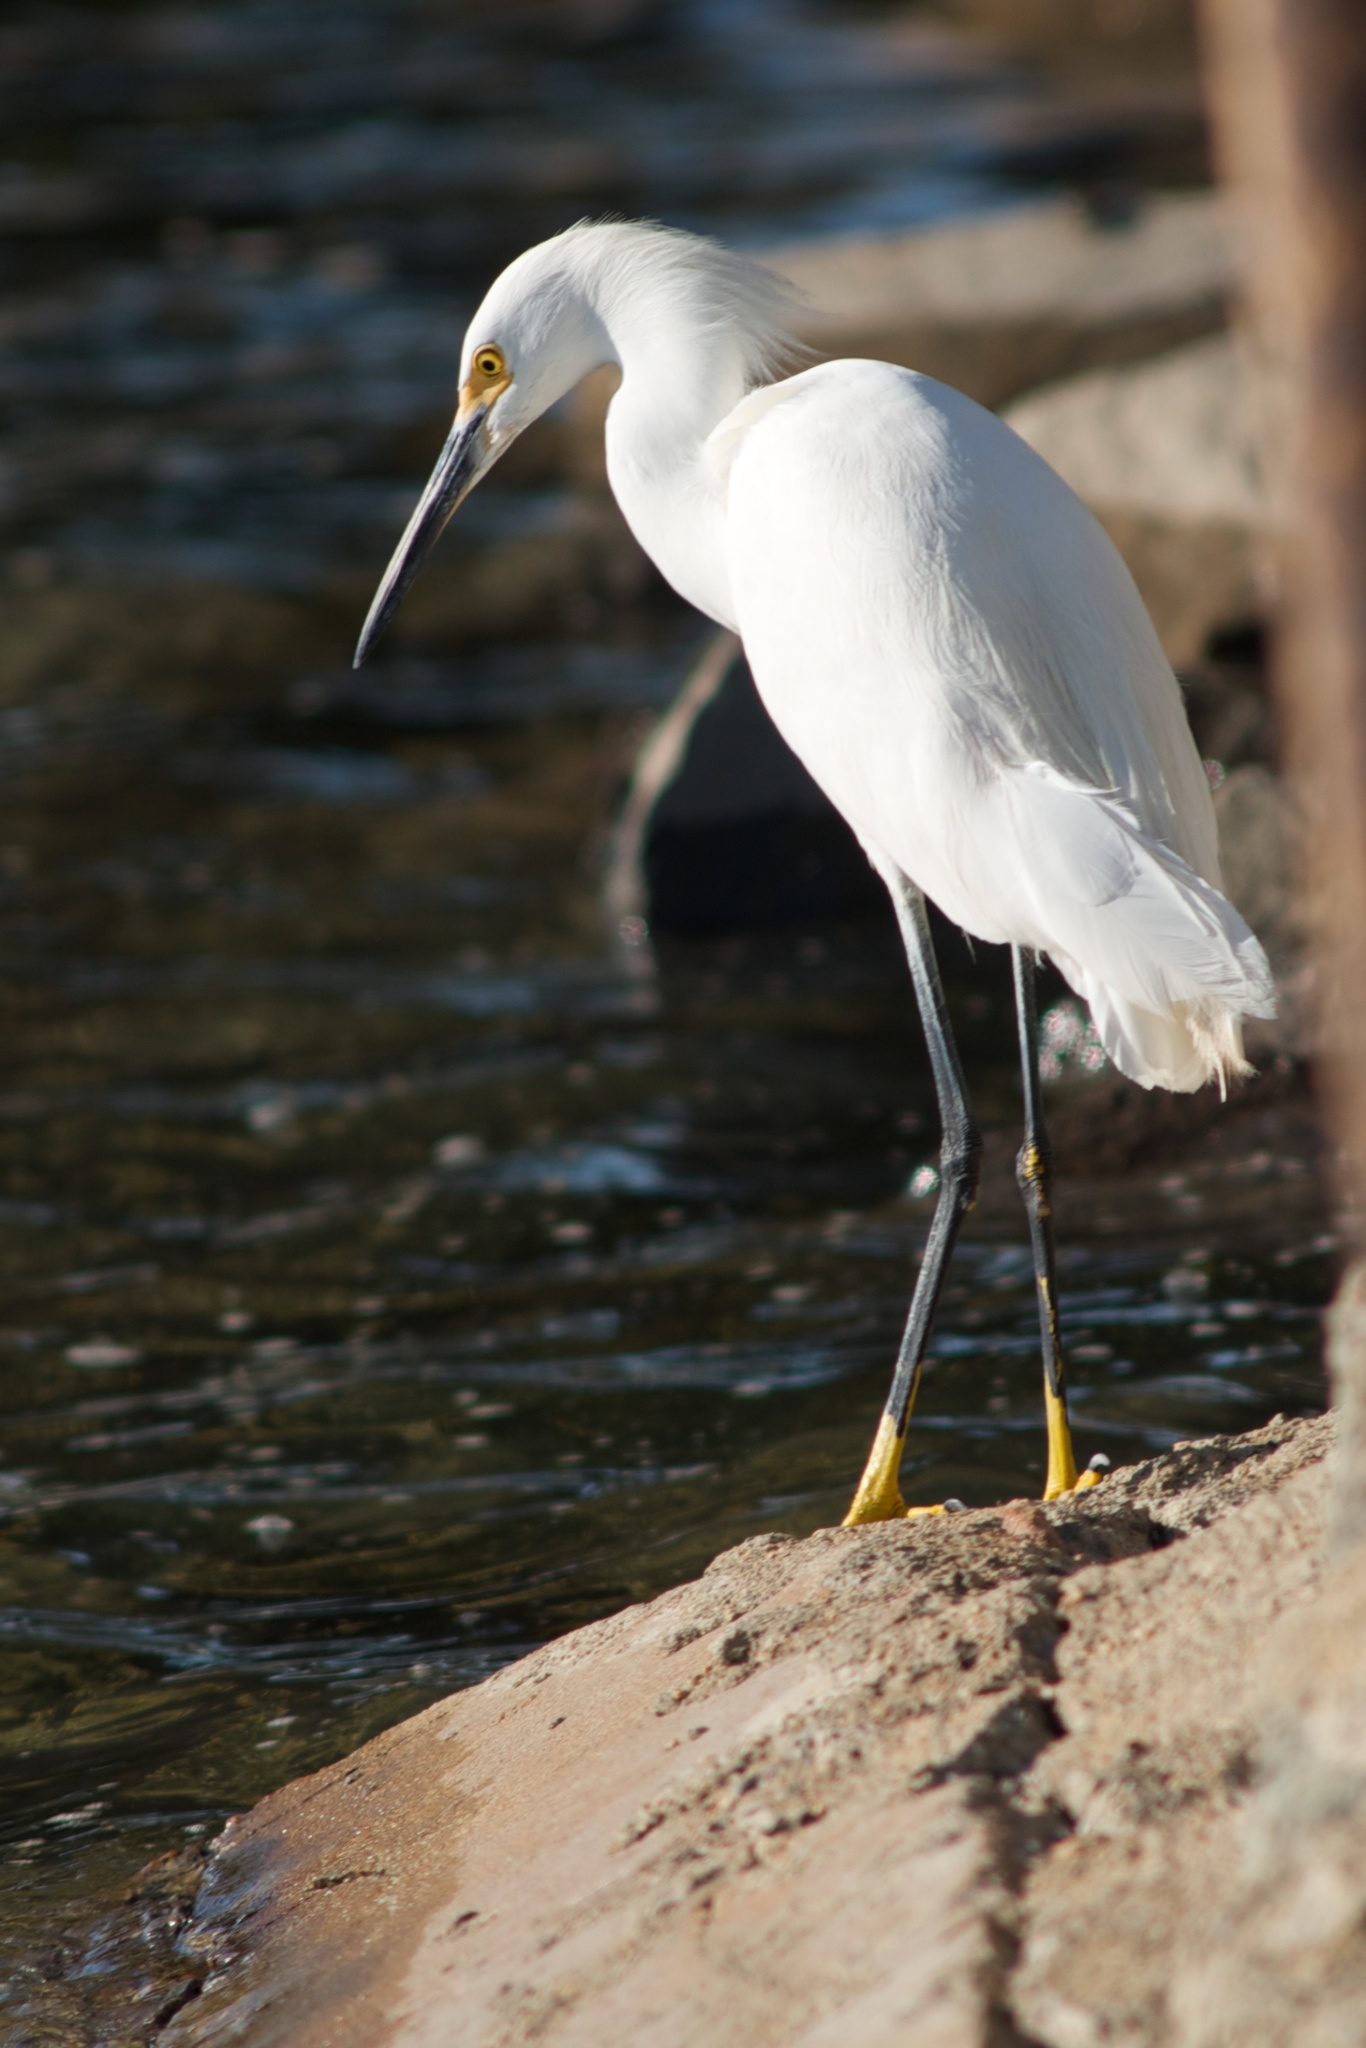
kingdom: Animalia
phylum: Chordata
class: Aves
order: Pelecaniformes
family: Ardeidae
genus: Egretta
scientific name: Egretta thula
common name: Snowy egret
